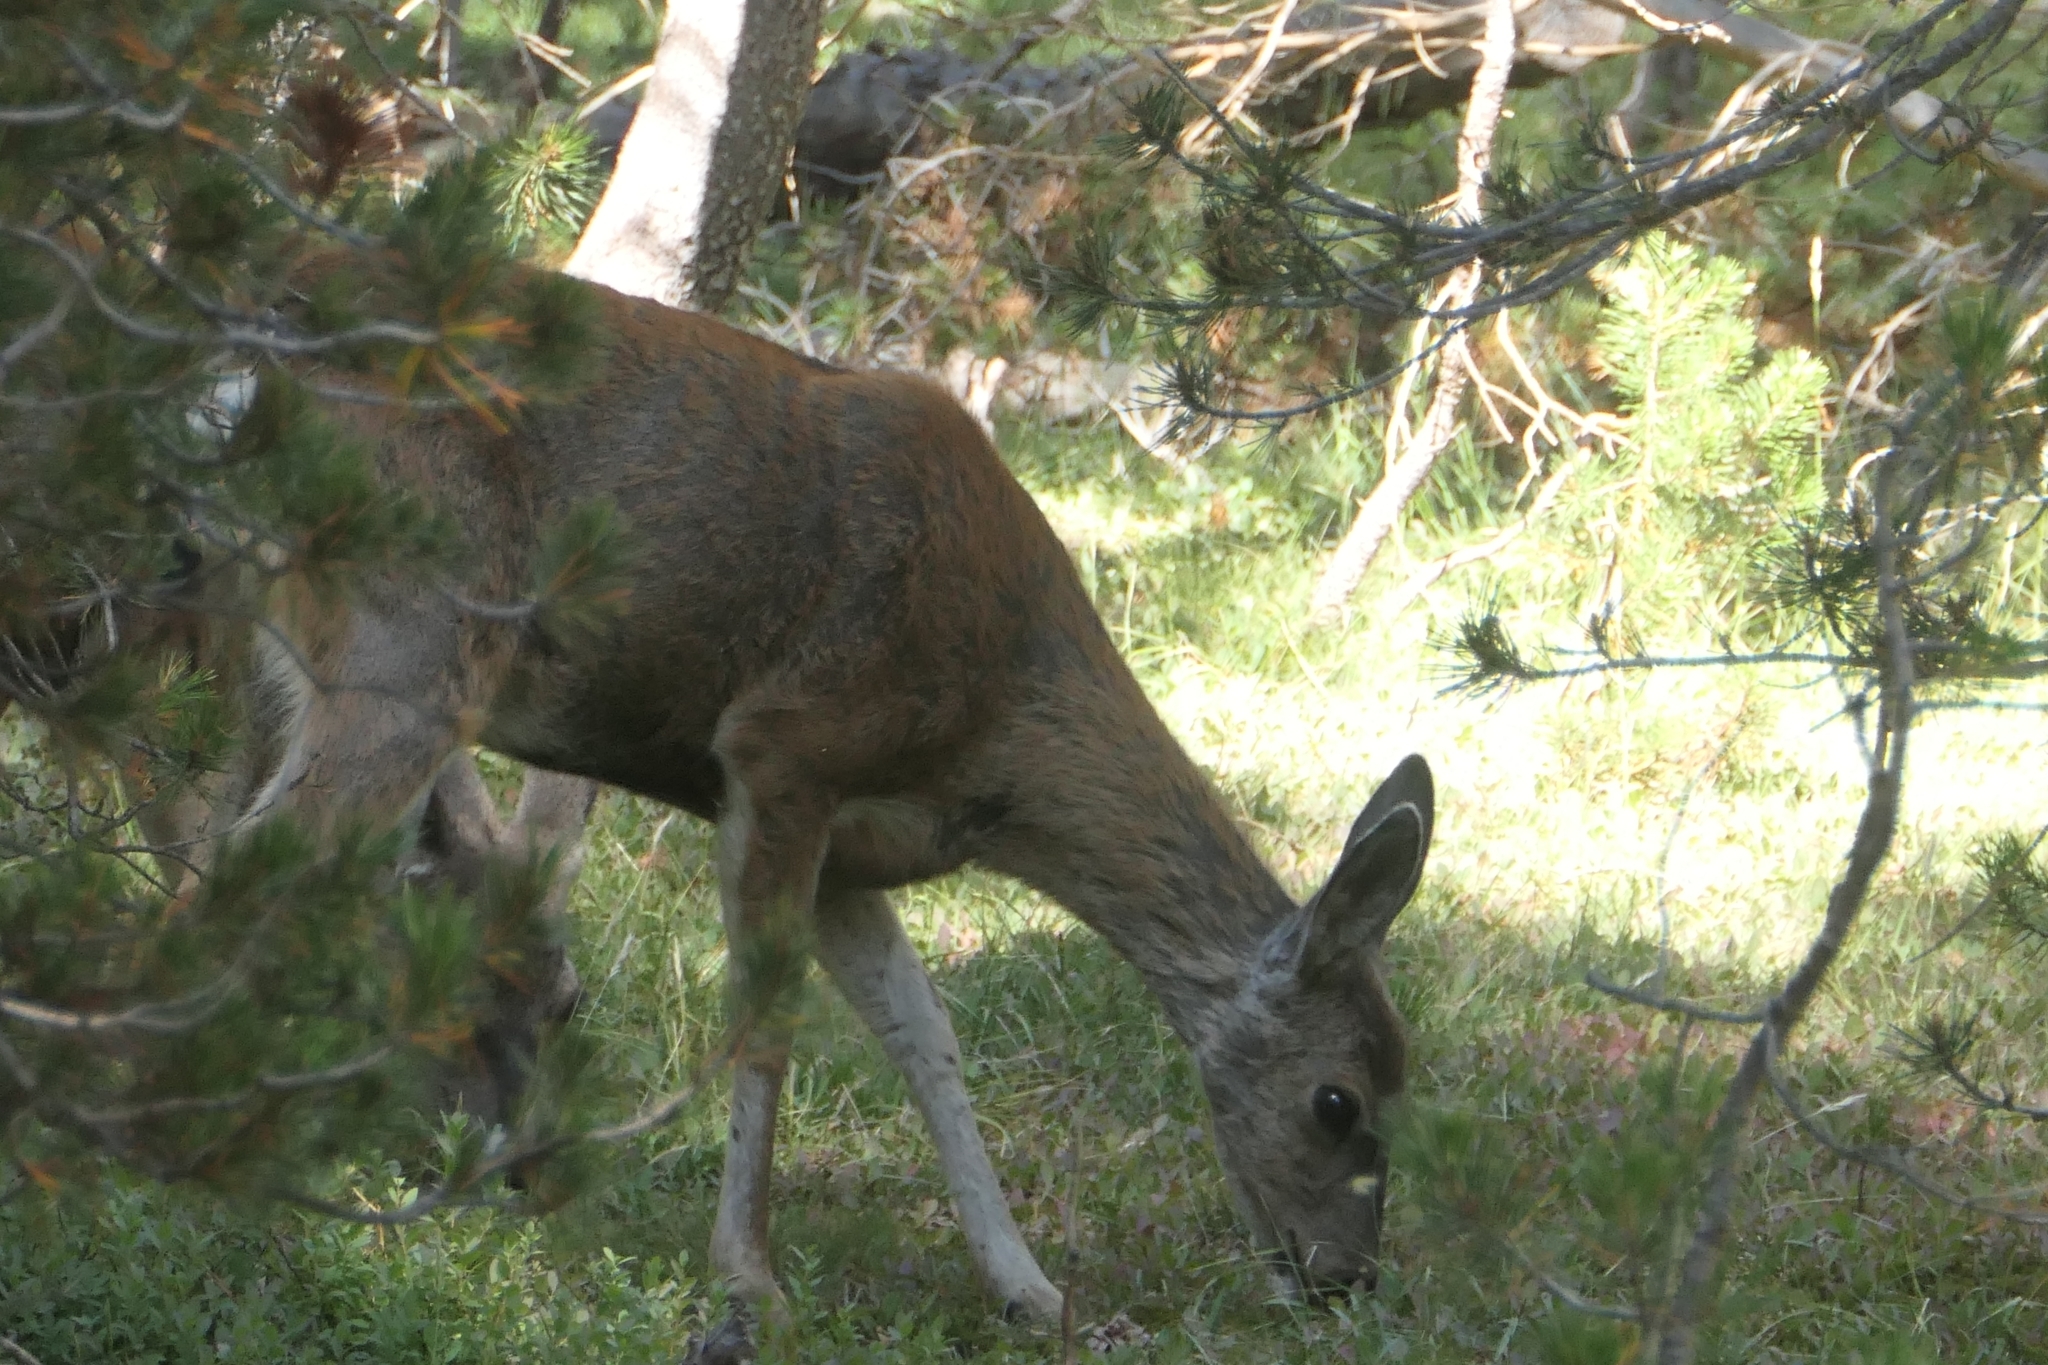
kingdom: Animalia
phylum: Chordata
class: Mammalia
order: Artiodactyla
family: Cervidae
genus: Odocoileus
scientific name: Odocoileus hemionus
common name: Mule deer
